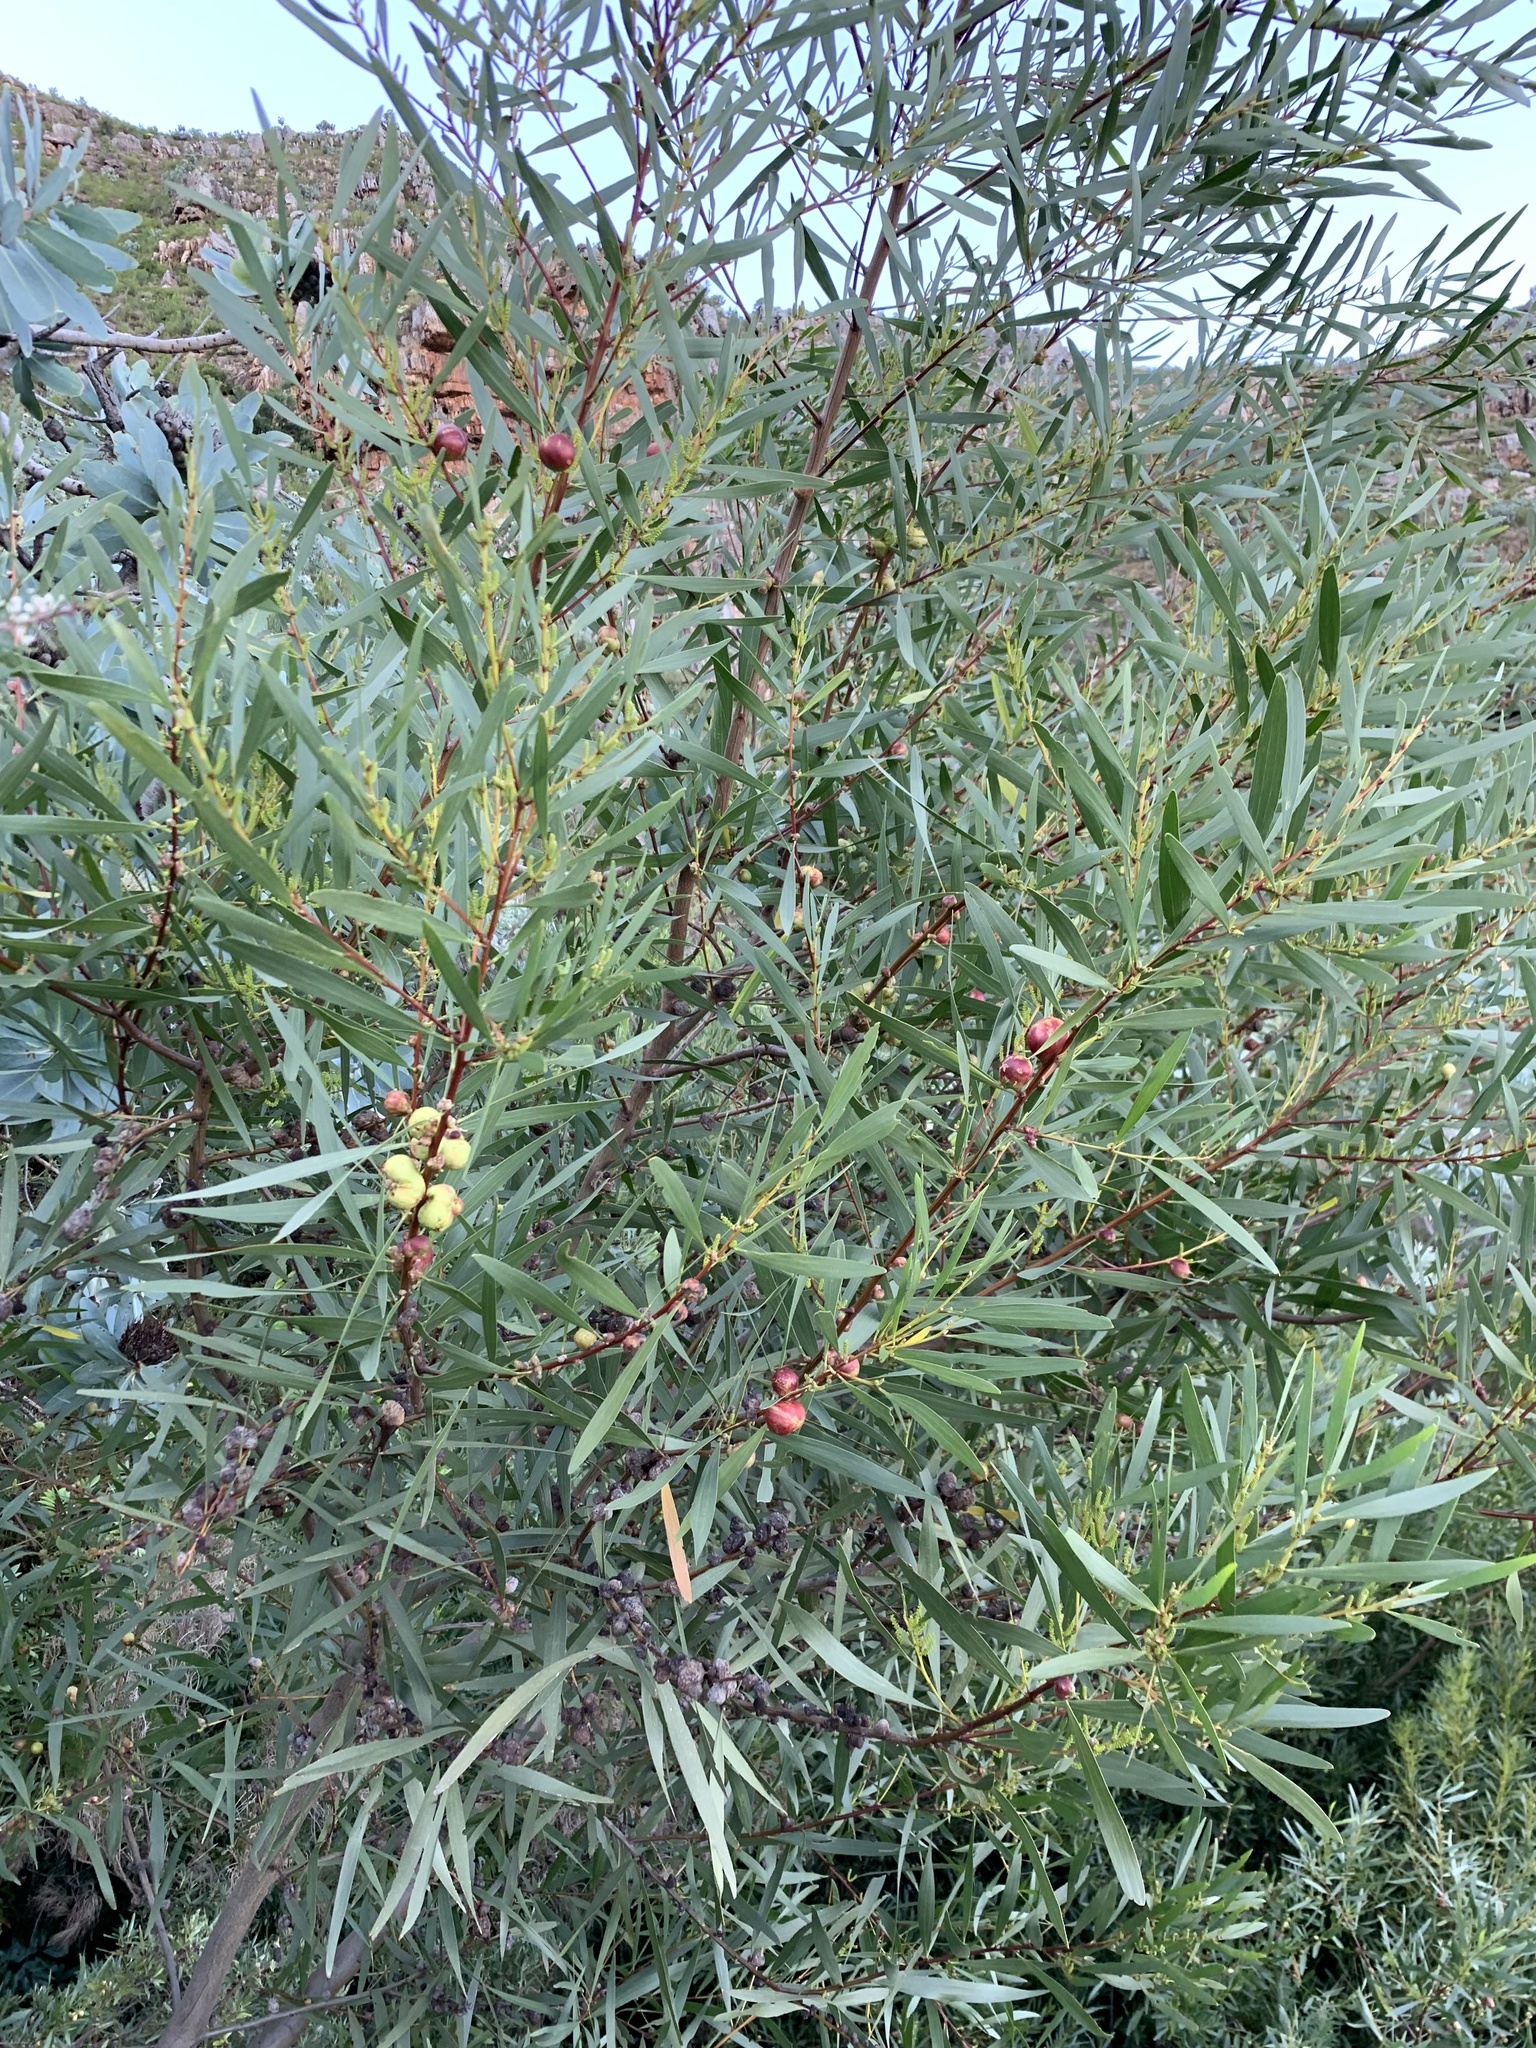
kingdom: Plantae
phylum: Tracheophyta
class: Magnoliopsida
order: Fabales
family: Fabaceae
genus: Acacia
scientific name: Acacia longifolia
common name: Sydney golden wattle
